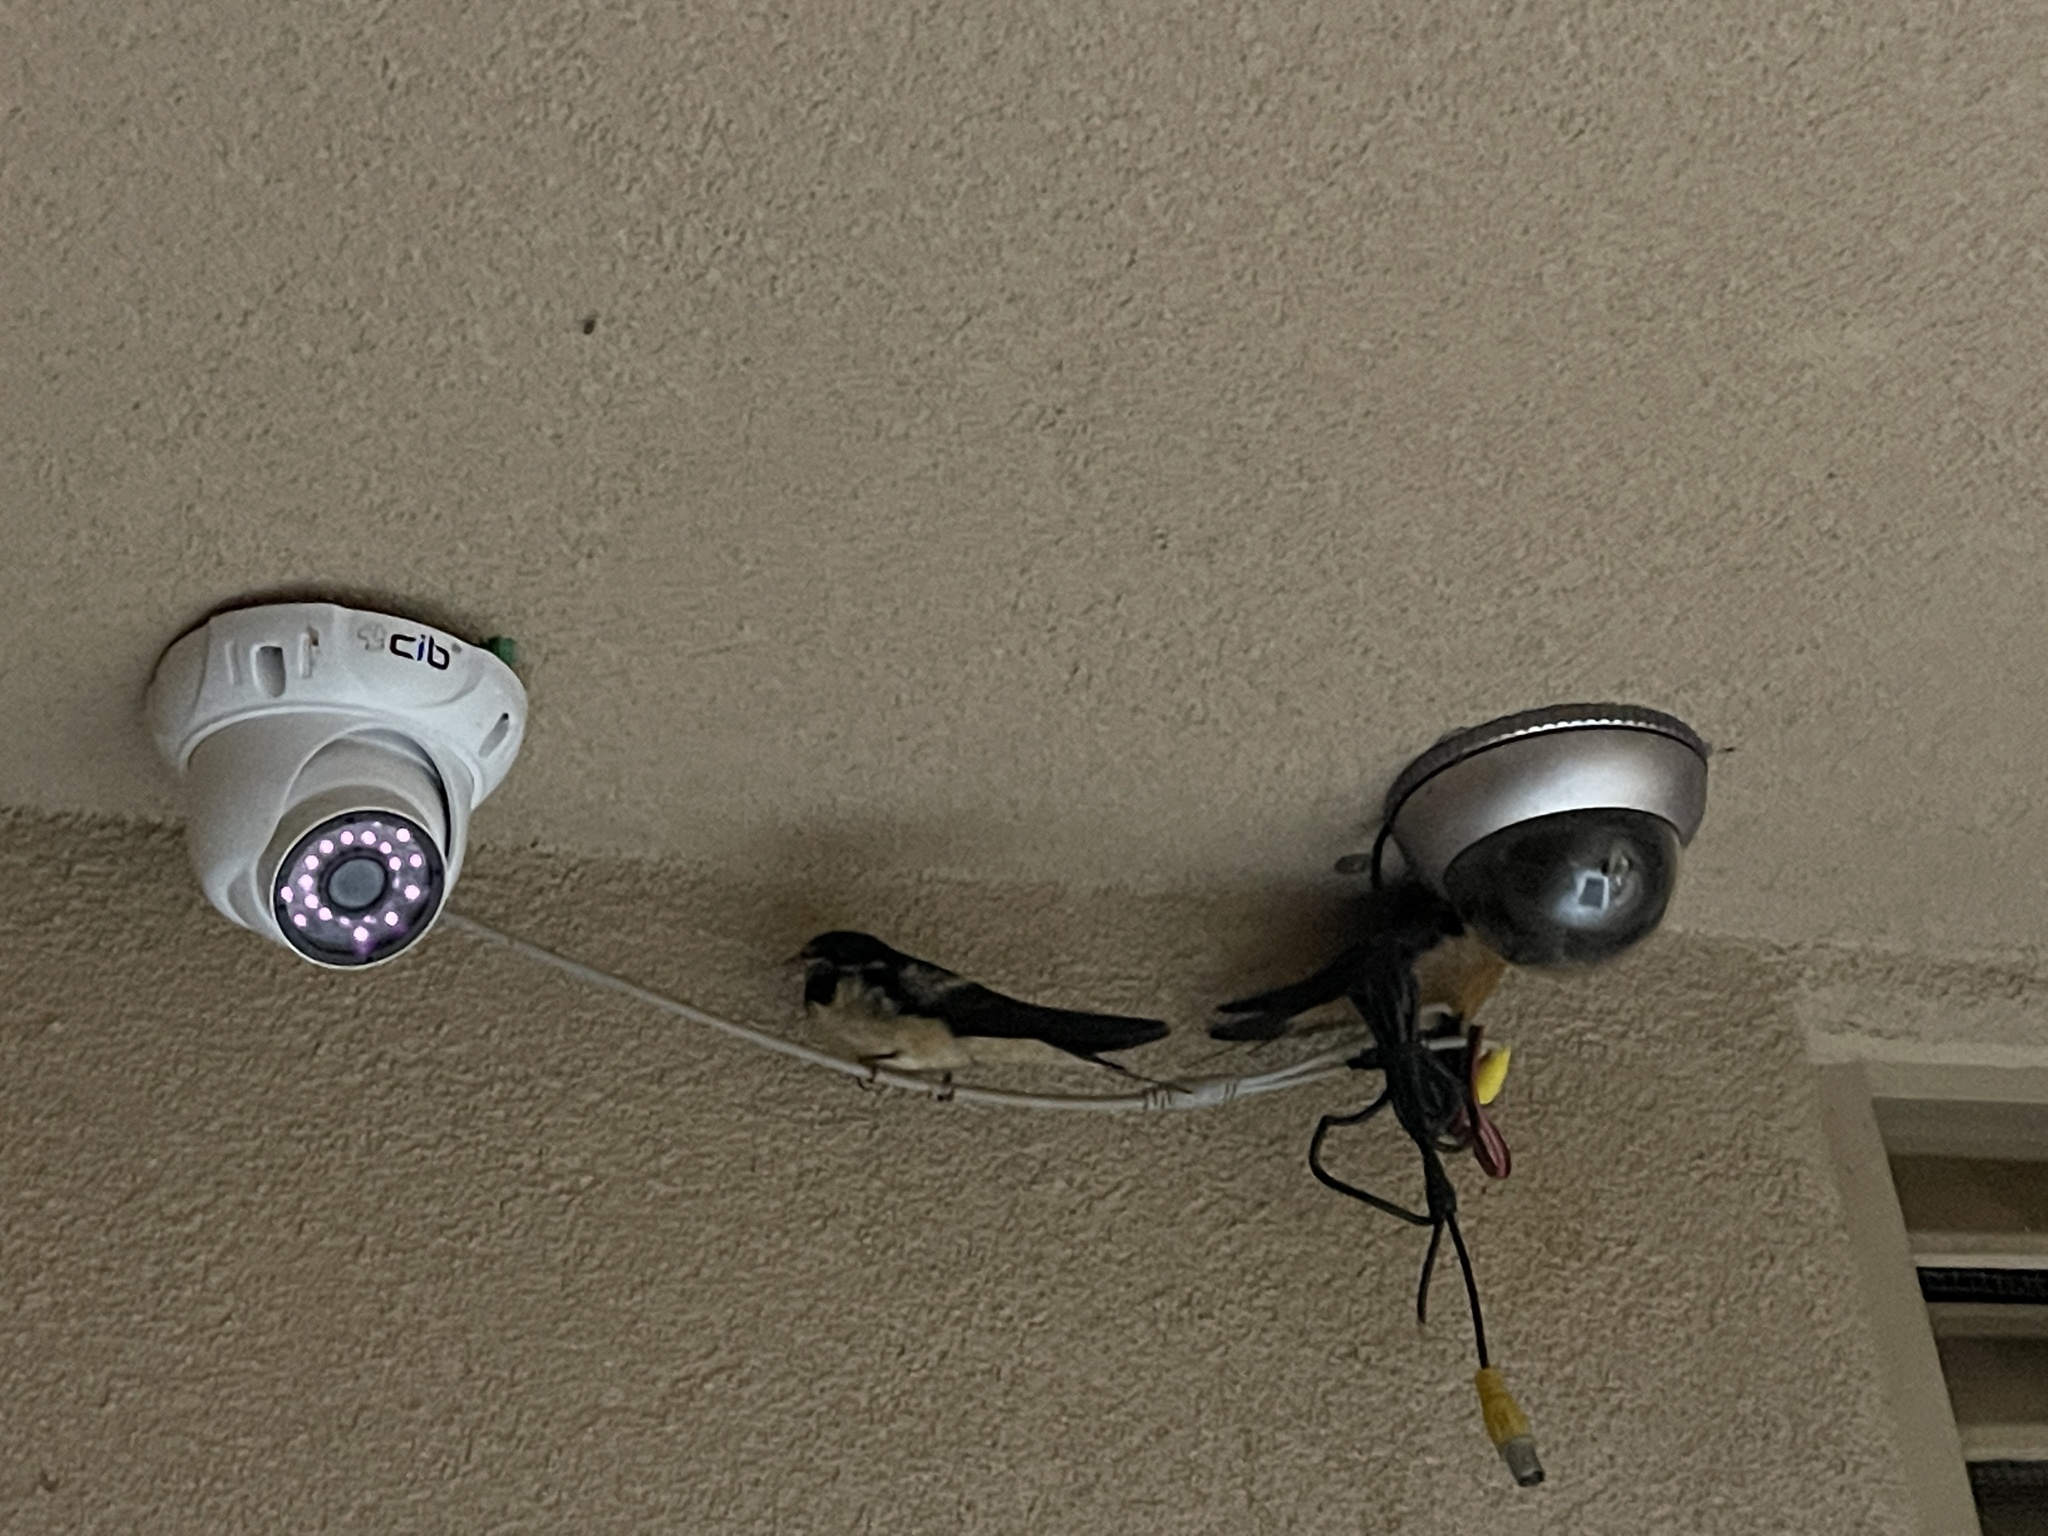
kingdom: Animalia
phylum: Chordata
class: Aves
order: Passeriformes
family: Hirundinidae
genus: Hirundo
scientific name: Hirundo rustica
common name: Barn swallow
